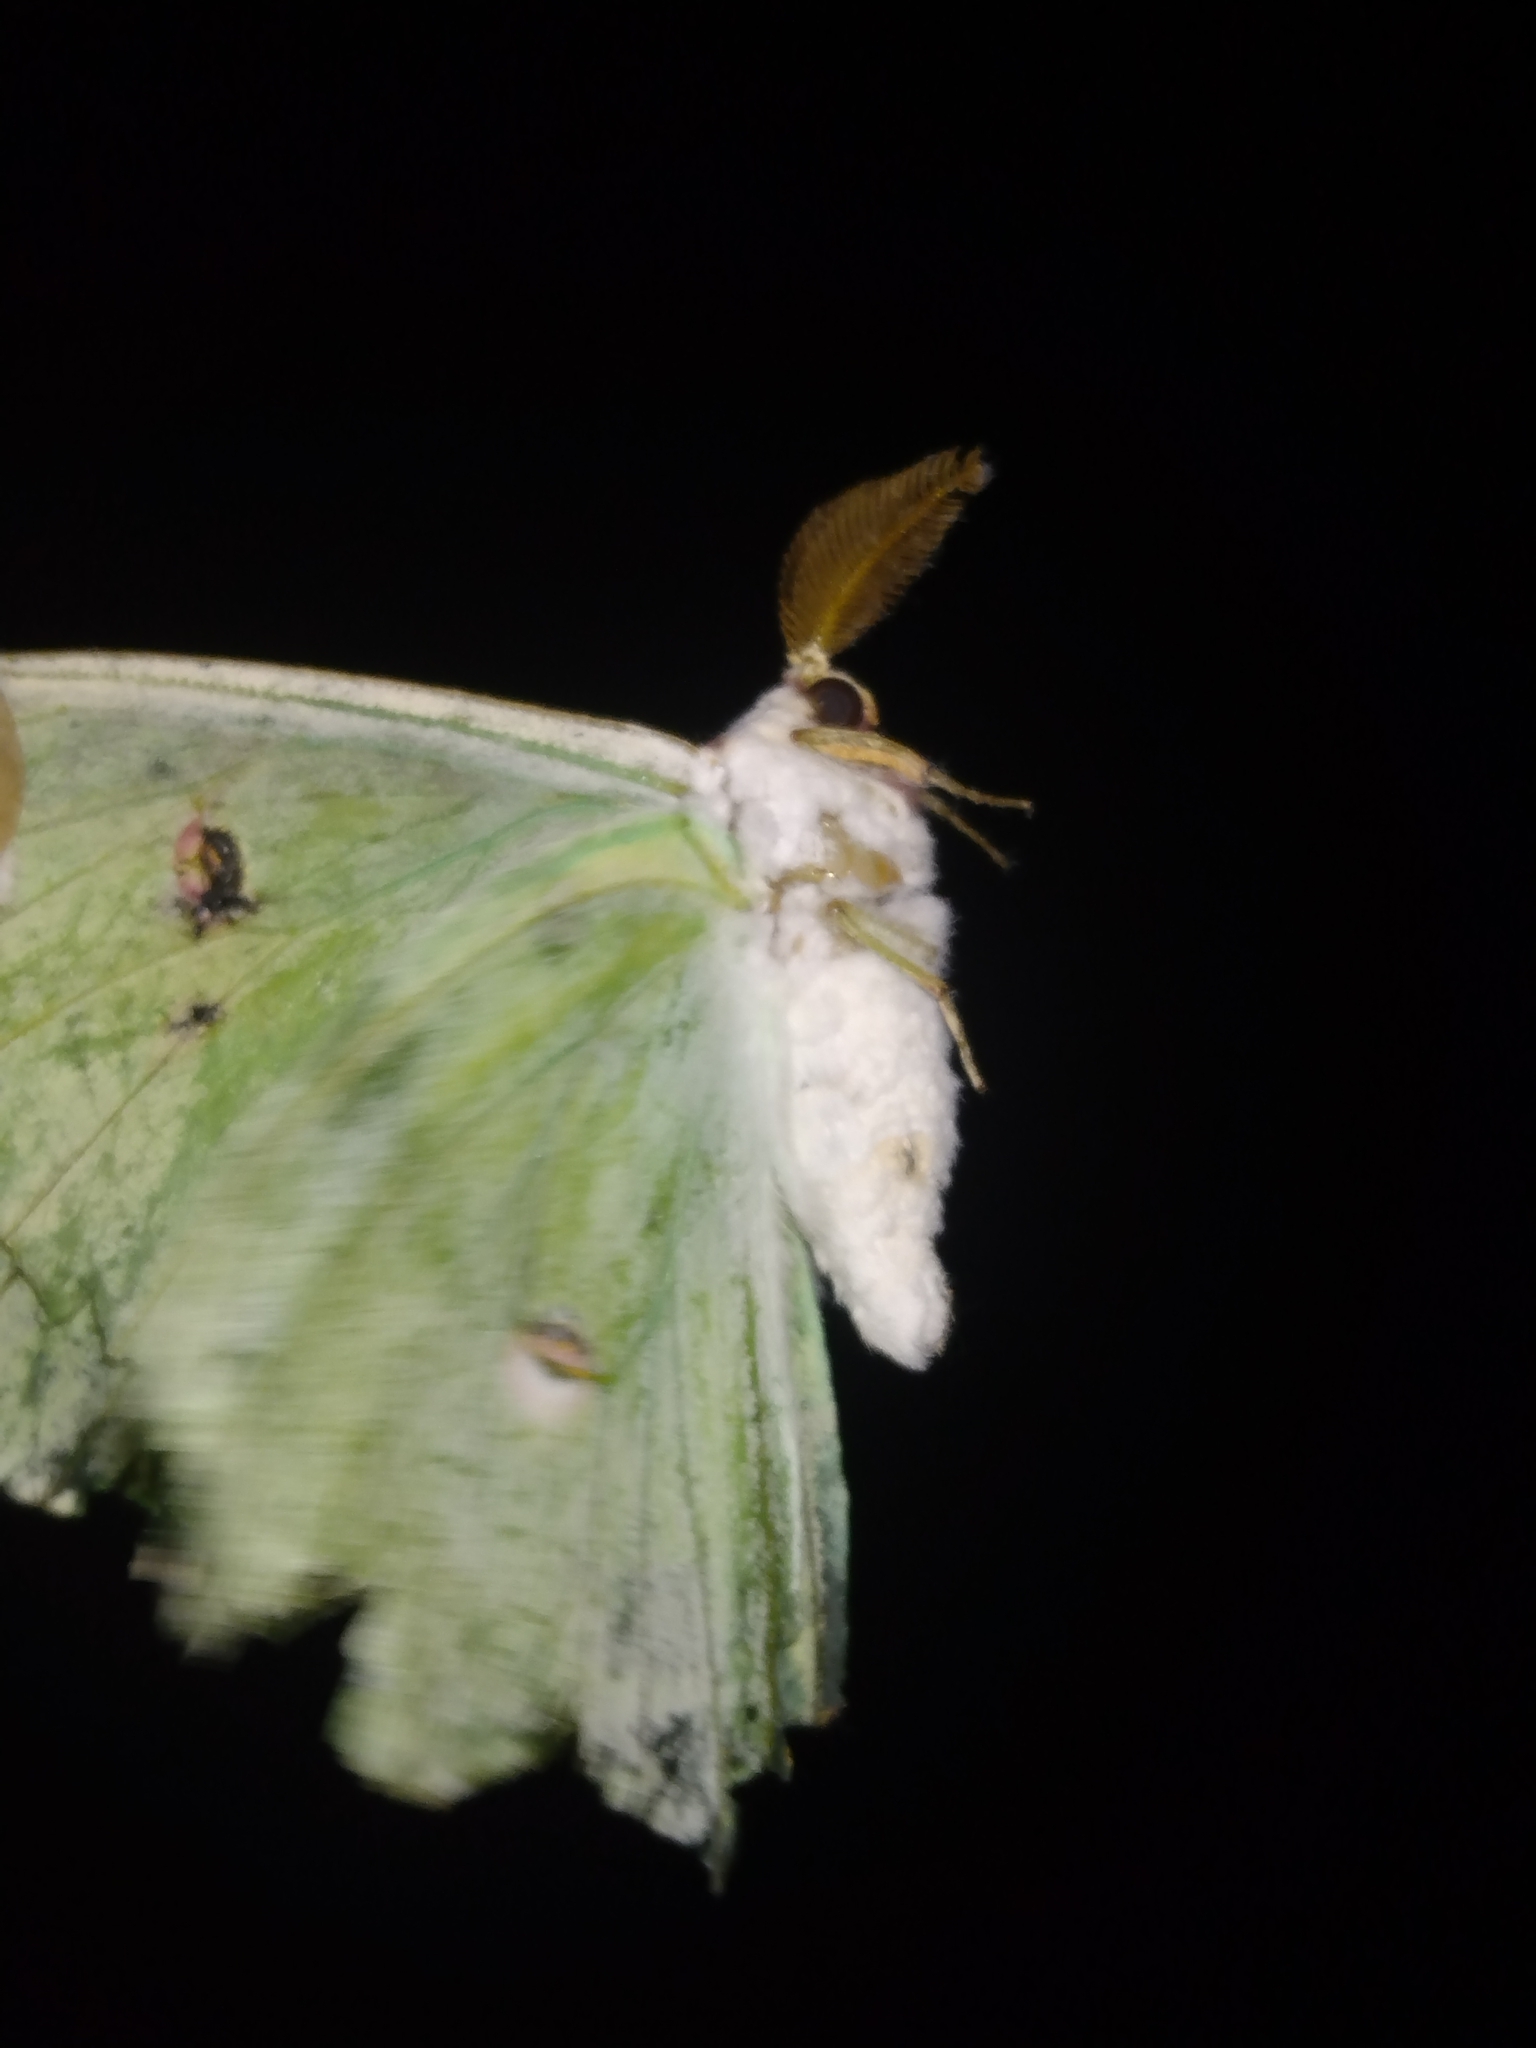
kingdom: Animalia
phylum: Arthropoda
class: Insecta
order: Lepidoptera
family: Saturniidae
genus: Actias
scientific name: Actias luna
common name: Luna moth
